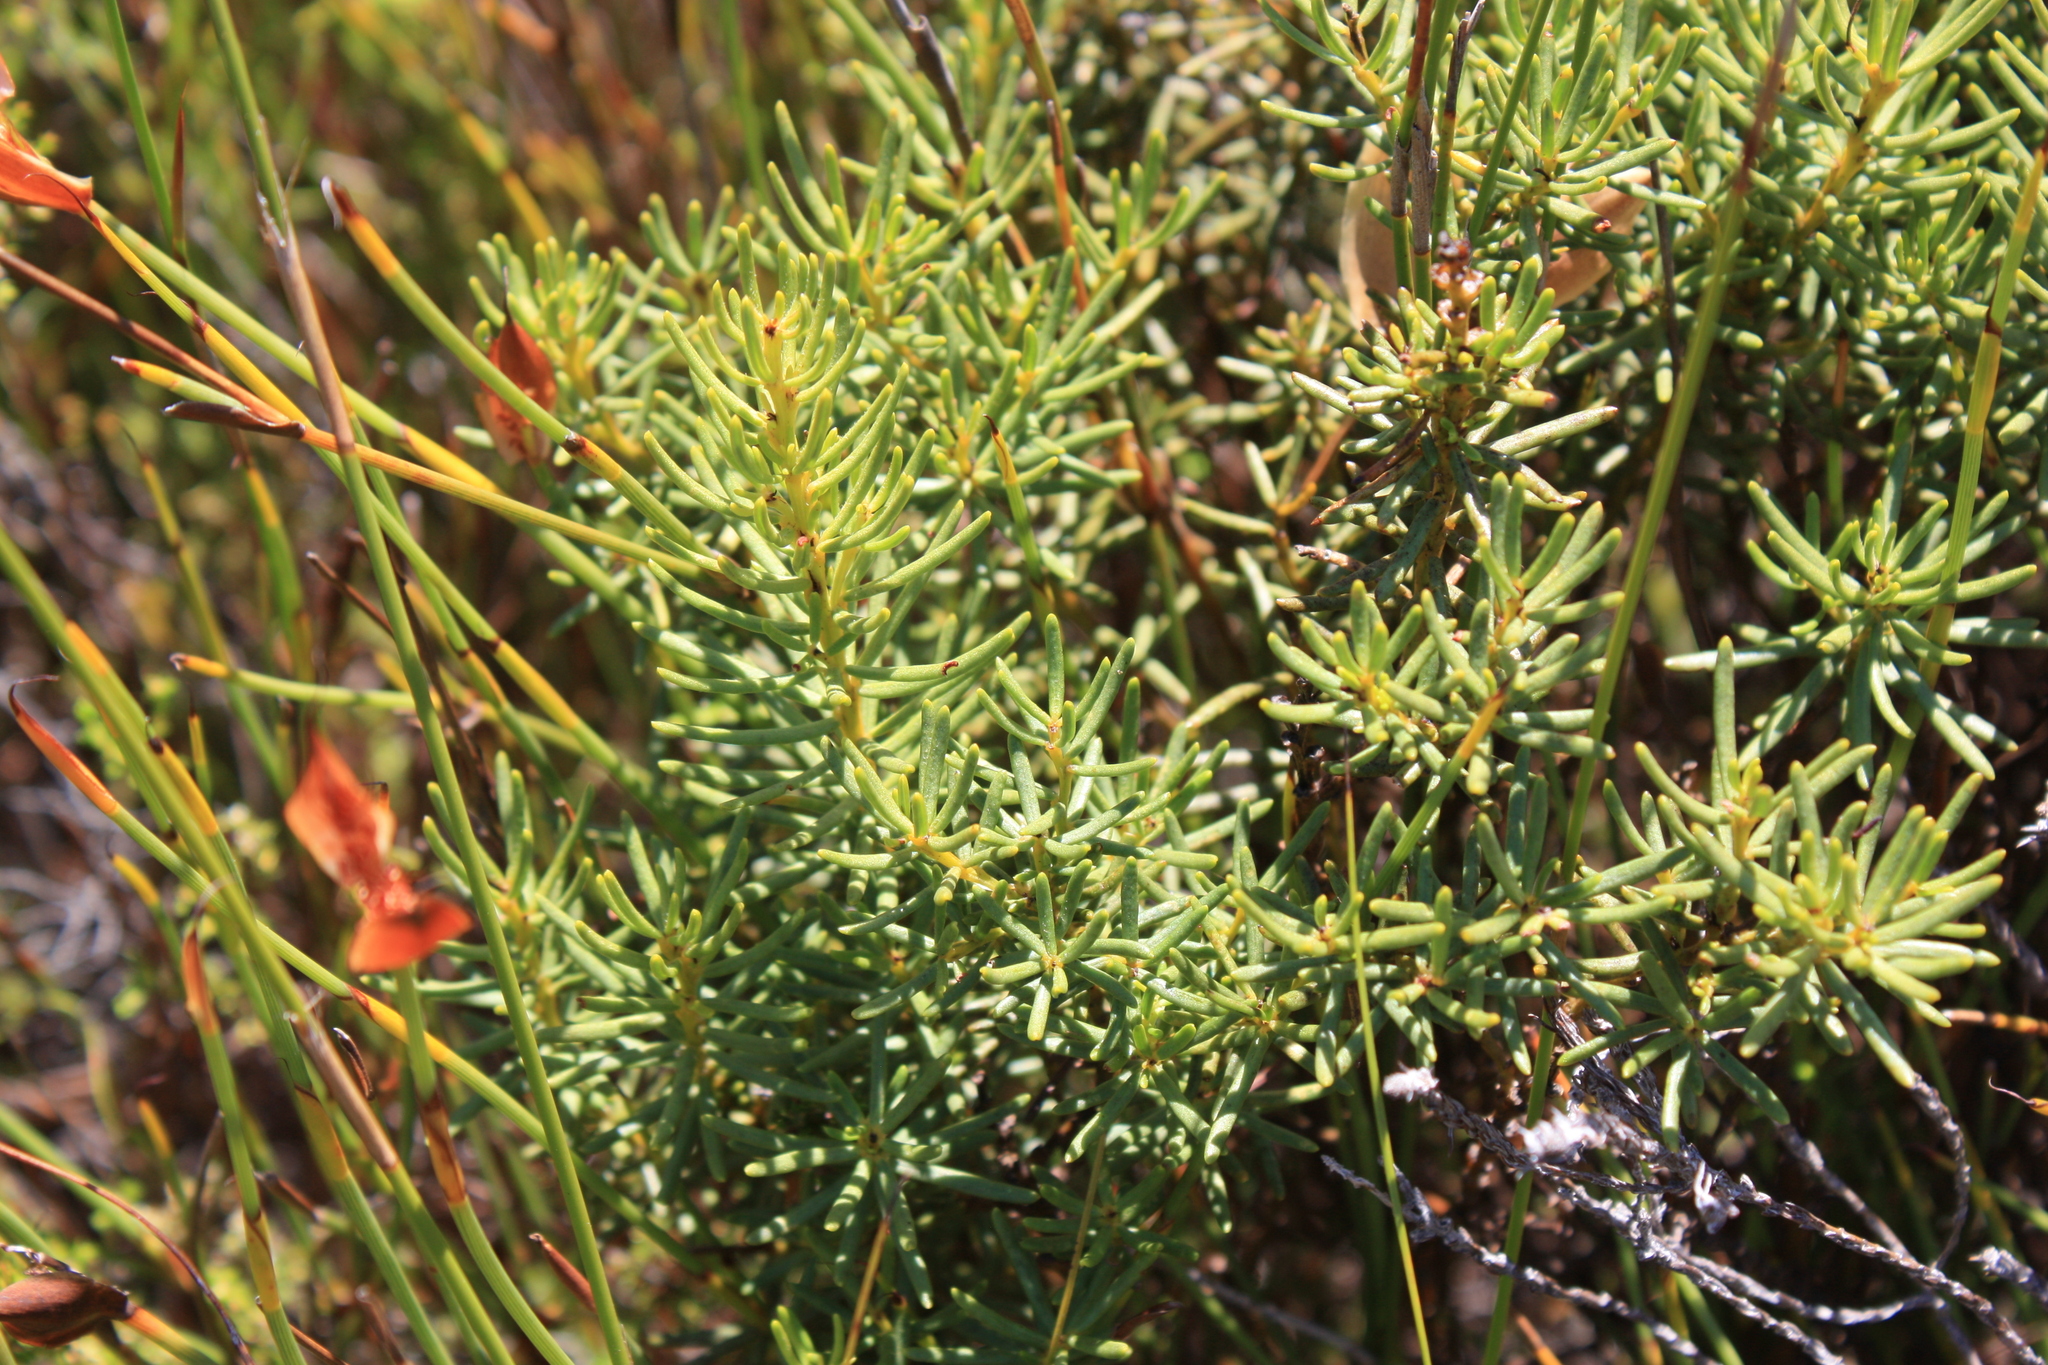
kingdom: Plantae
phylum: Tracheophyta
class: Magnoliopsida
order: Fabales
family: Fabaceae
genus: Cyclopia
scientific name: Cyclopia genistoides
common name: Honeybush tea
